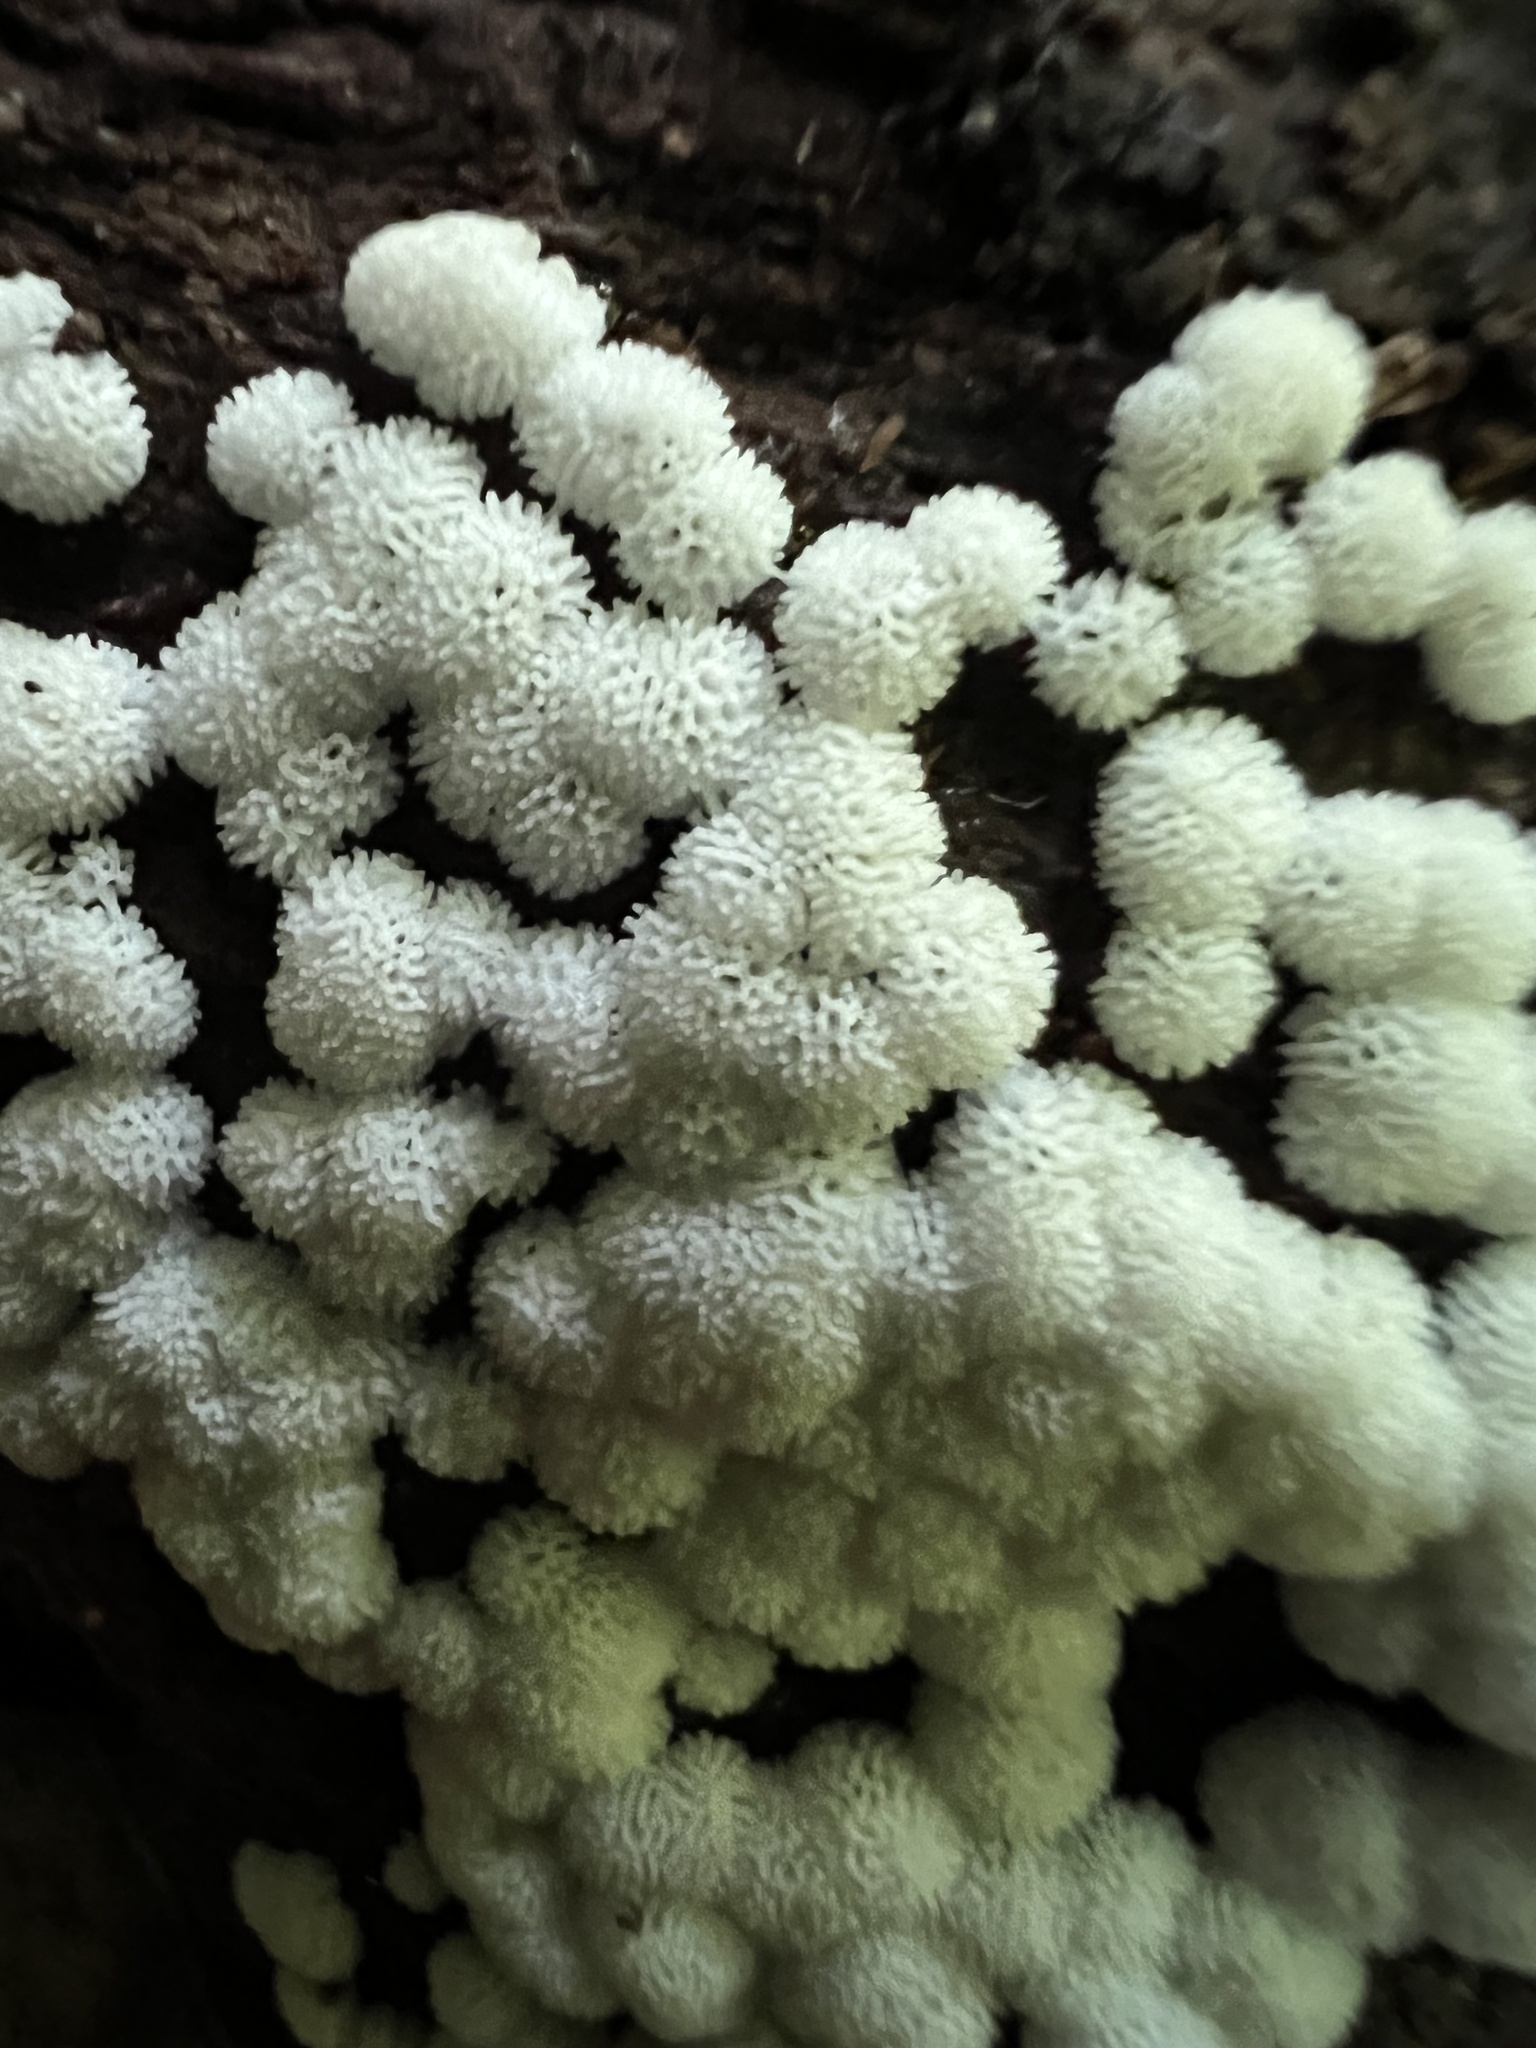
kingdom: Protozoa
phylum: Mycetozoa
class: Protosteliomycetes
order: Ceratiomyxales
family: Ceratiomyxaceae
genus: Ceratiomyxa
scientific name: Ceratiomyxa fruticulosa
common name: Honeycomb coral slime mold
